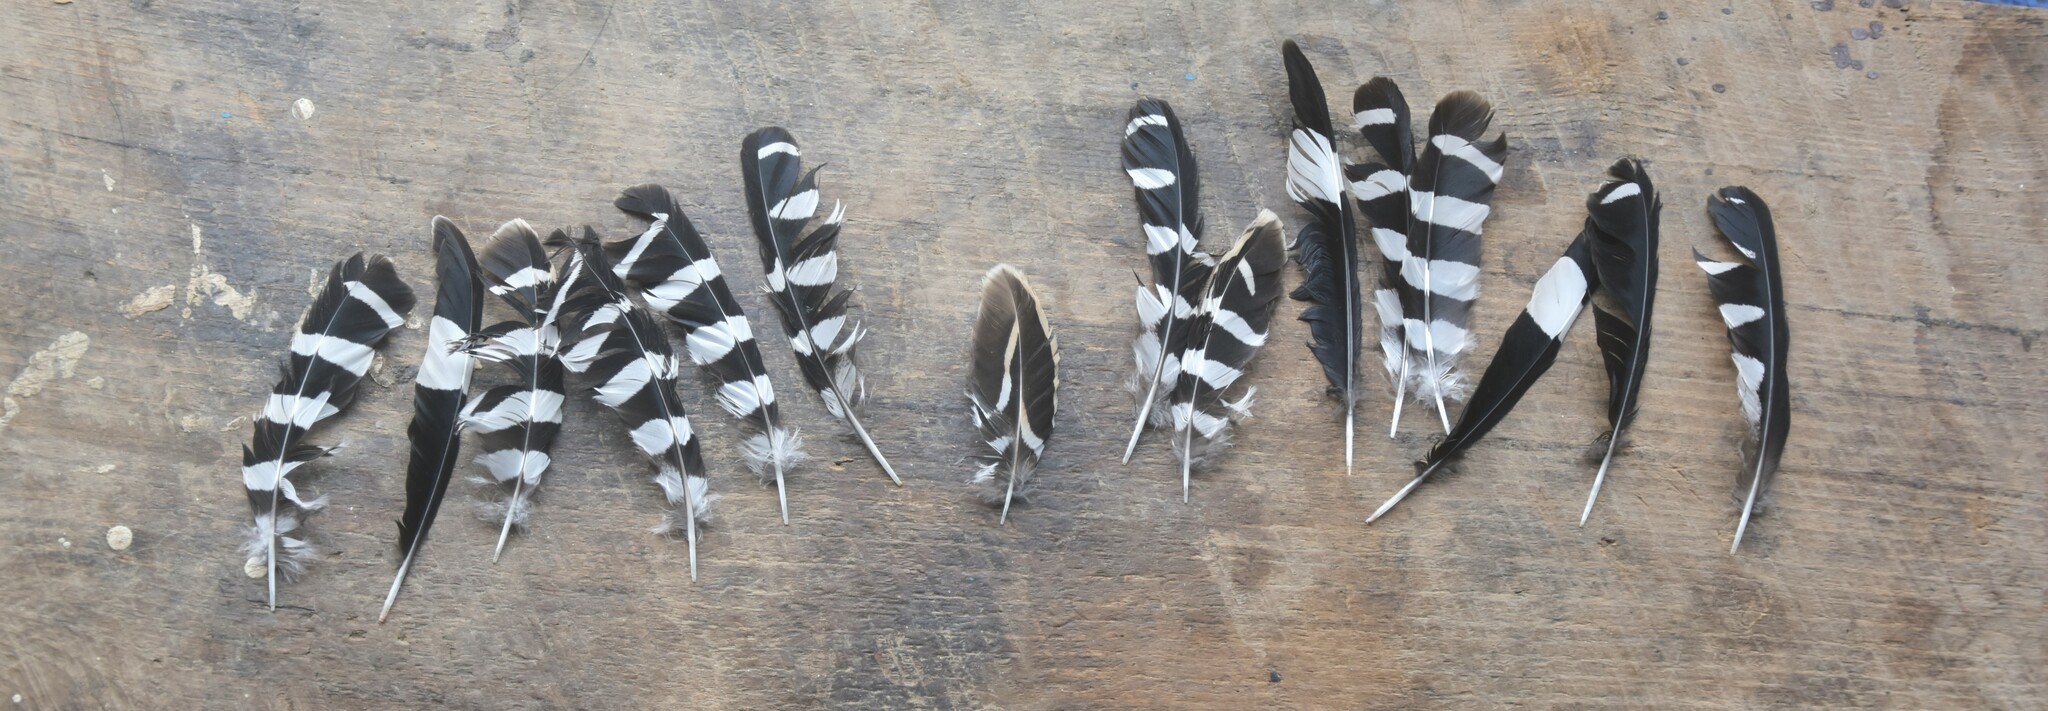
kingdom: Animalia
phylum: Chordata
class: Aves
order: Bucerotiformes
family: Upupidae
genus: Upupa
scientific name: Upupa epops
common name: Eurasian hoopoe
